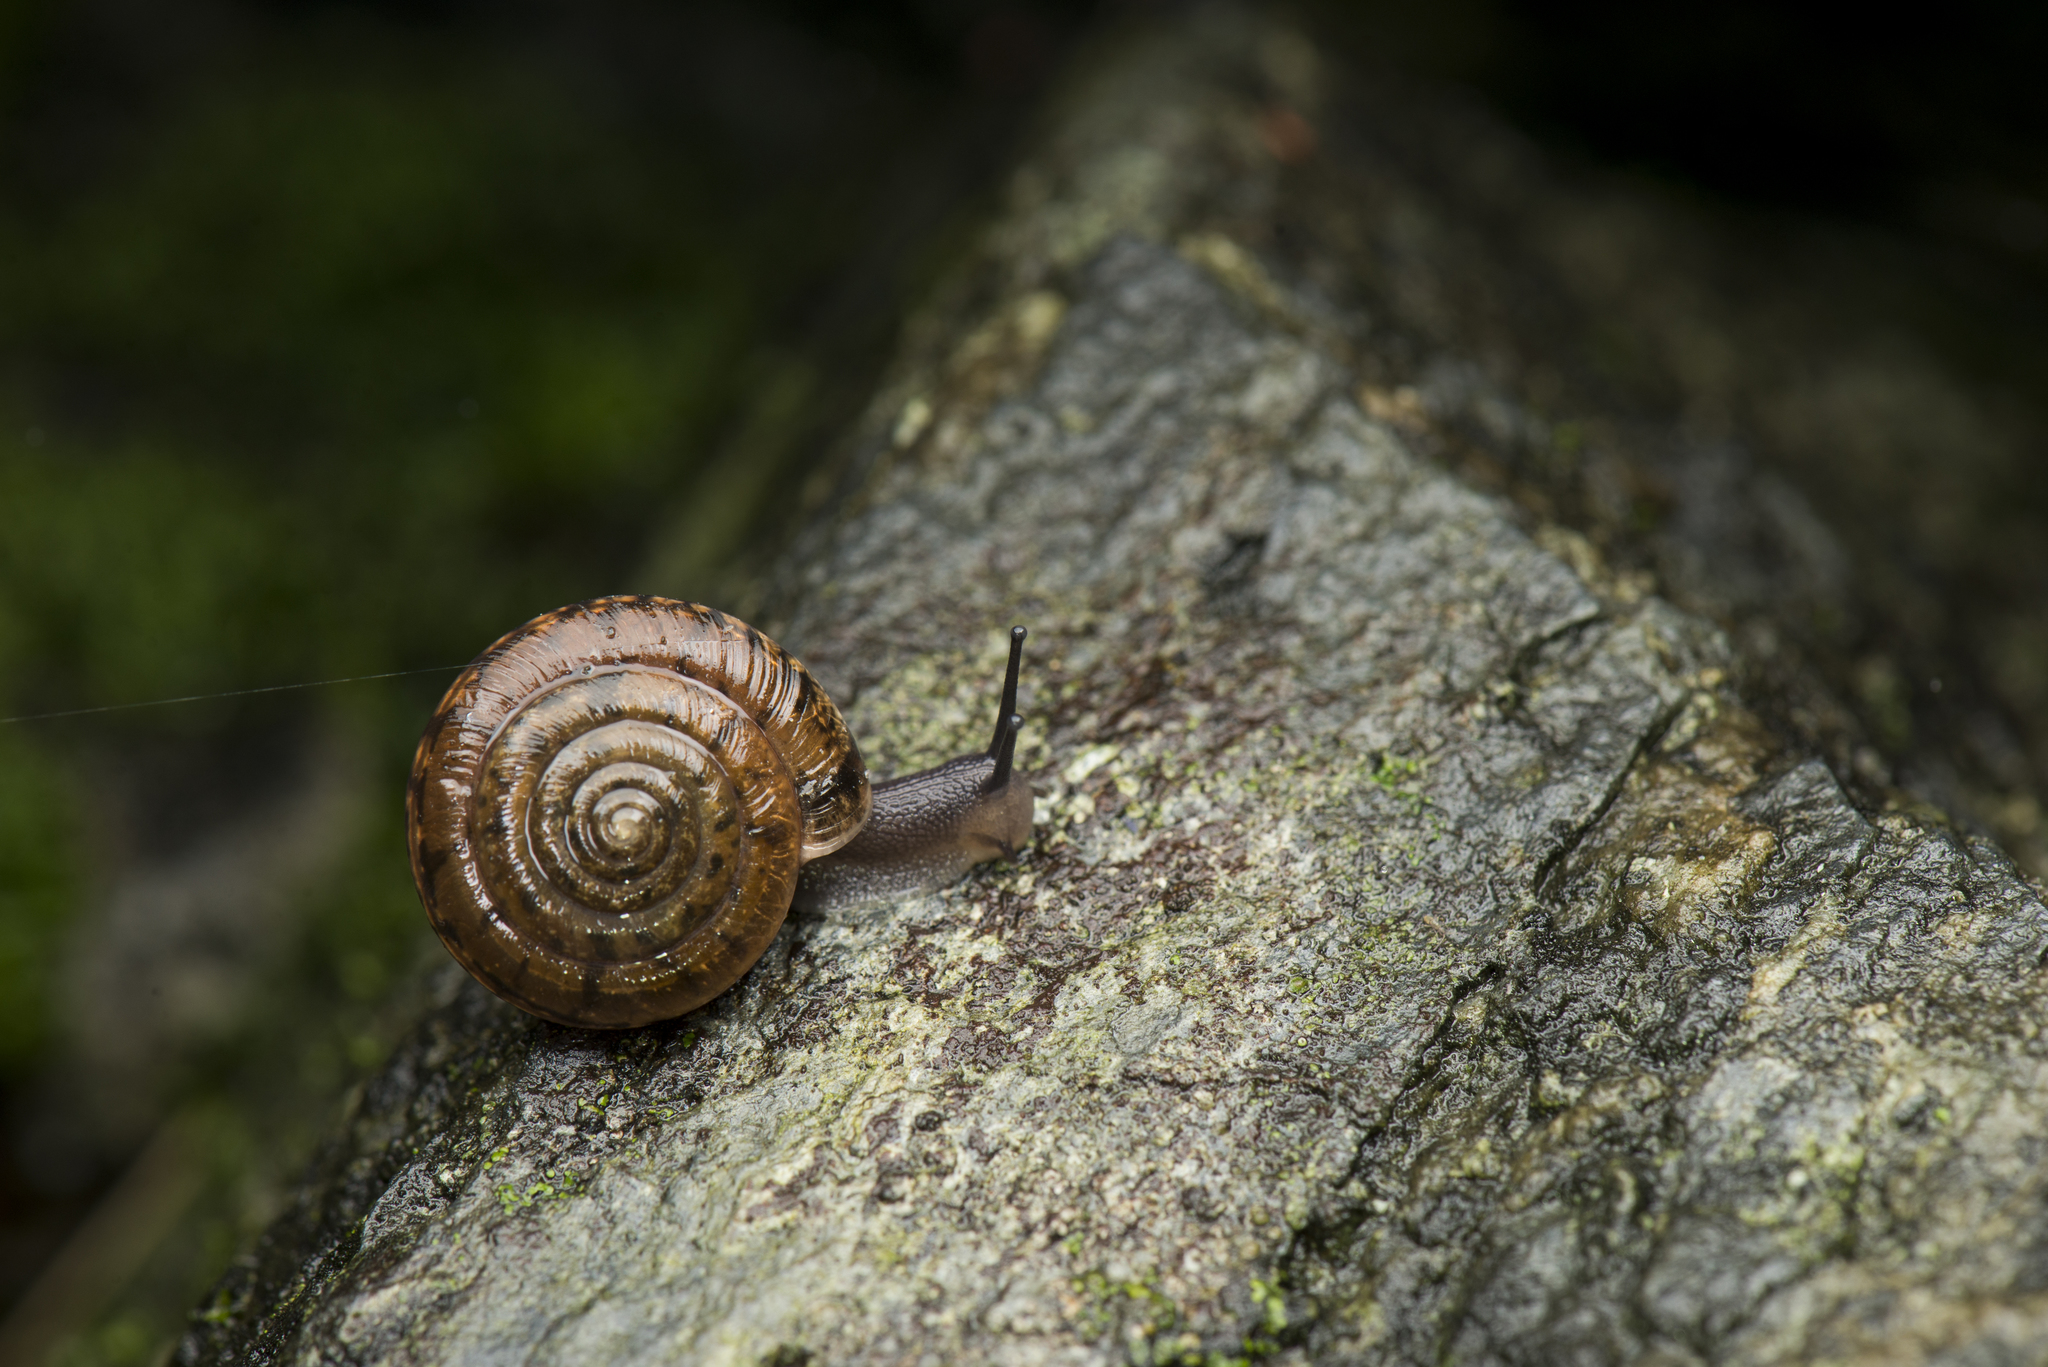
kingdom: Animalia
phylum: Mollusca
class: Gastropoda
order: Stylommatophora
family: Camaenidae
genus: Aegista
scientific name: Aegista diversifamilia
